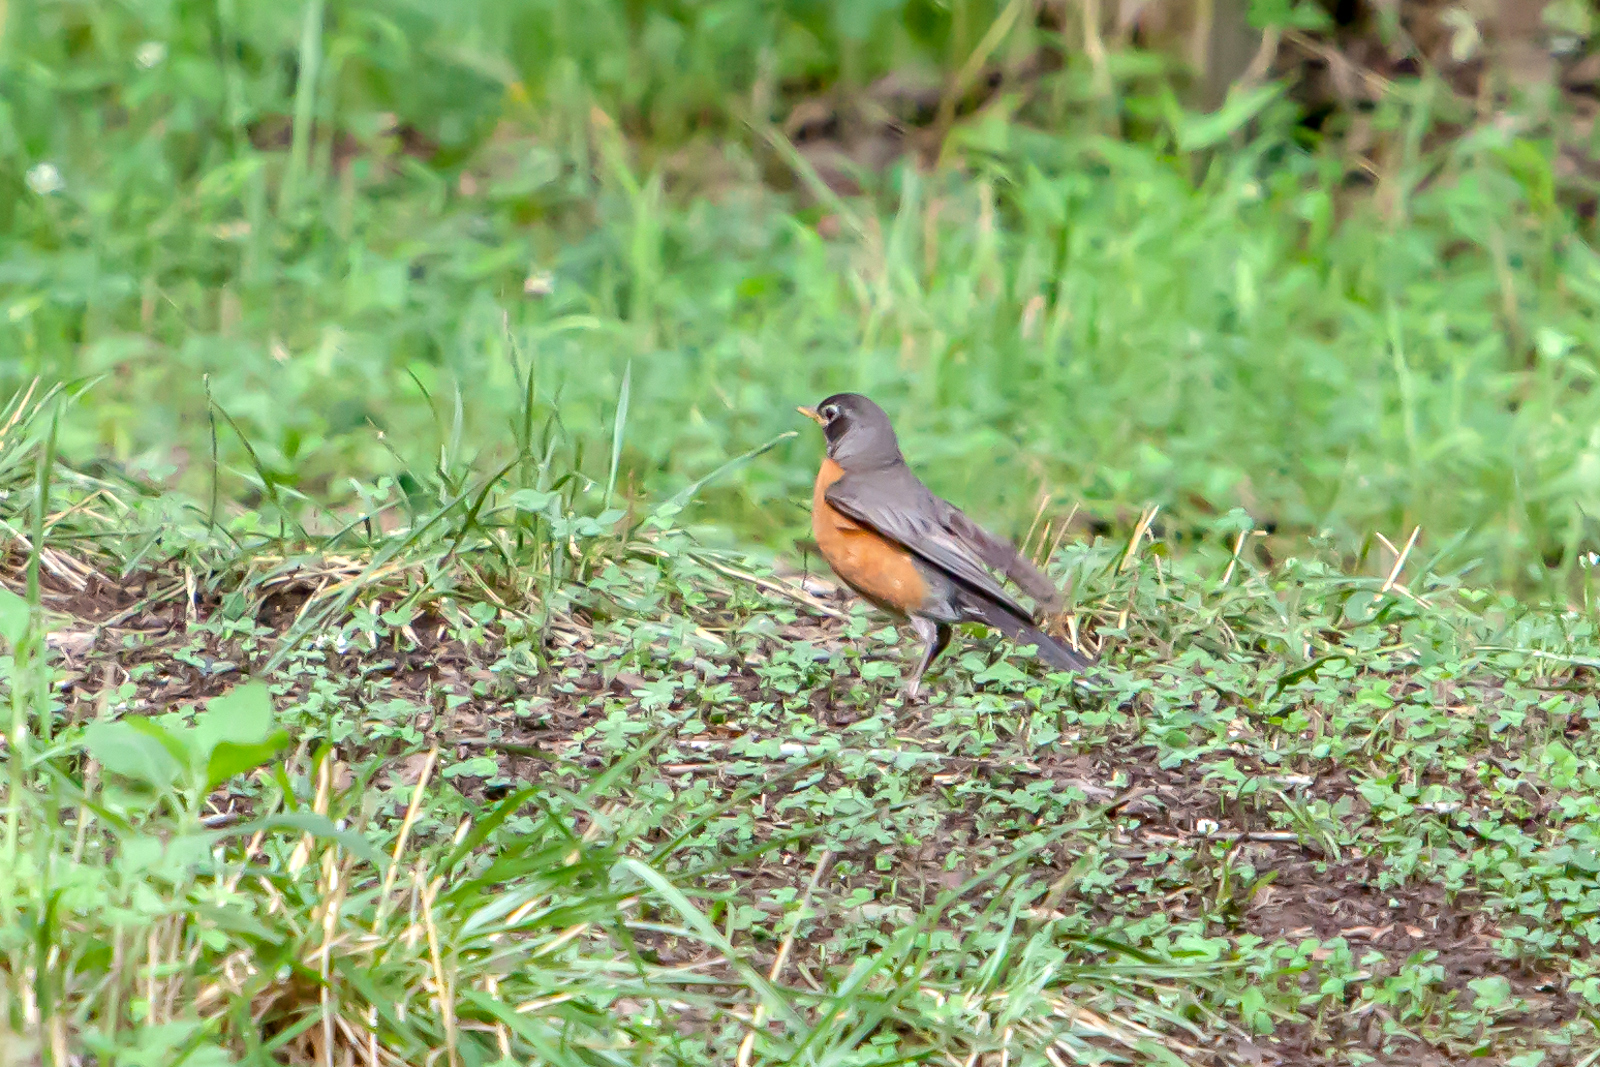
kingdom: Animalia
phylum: Chordata
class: Aves
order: Passeriformes
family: Turdidae
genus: Turdus
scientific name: Turdus migratorius
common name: American robin
